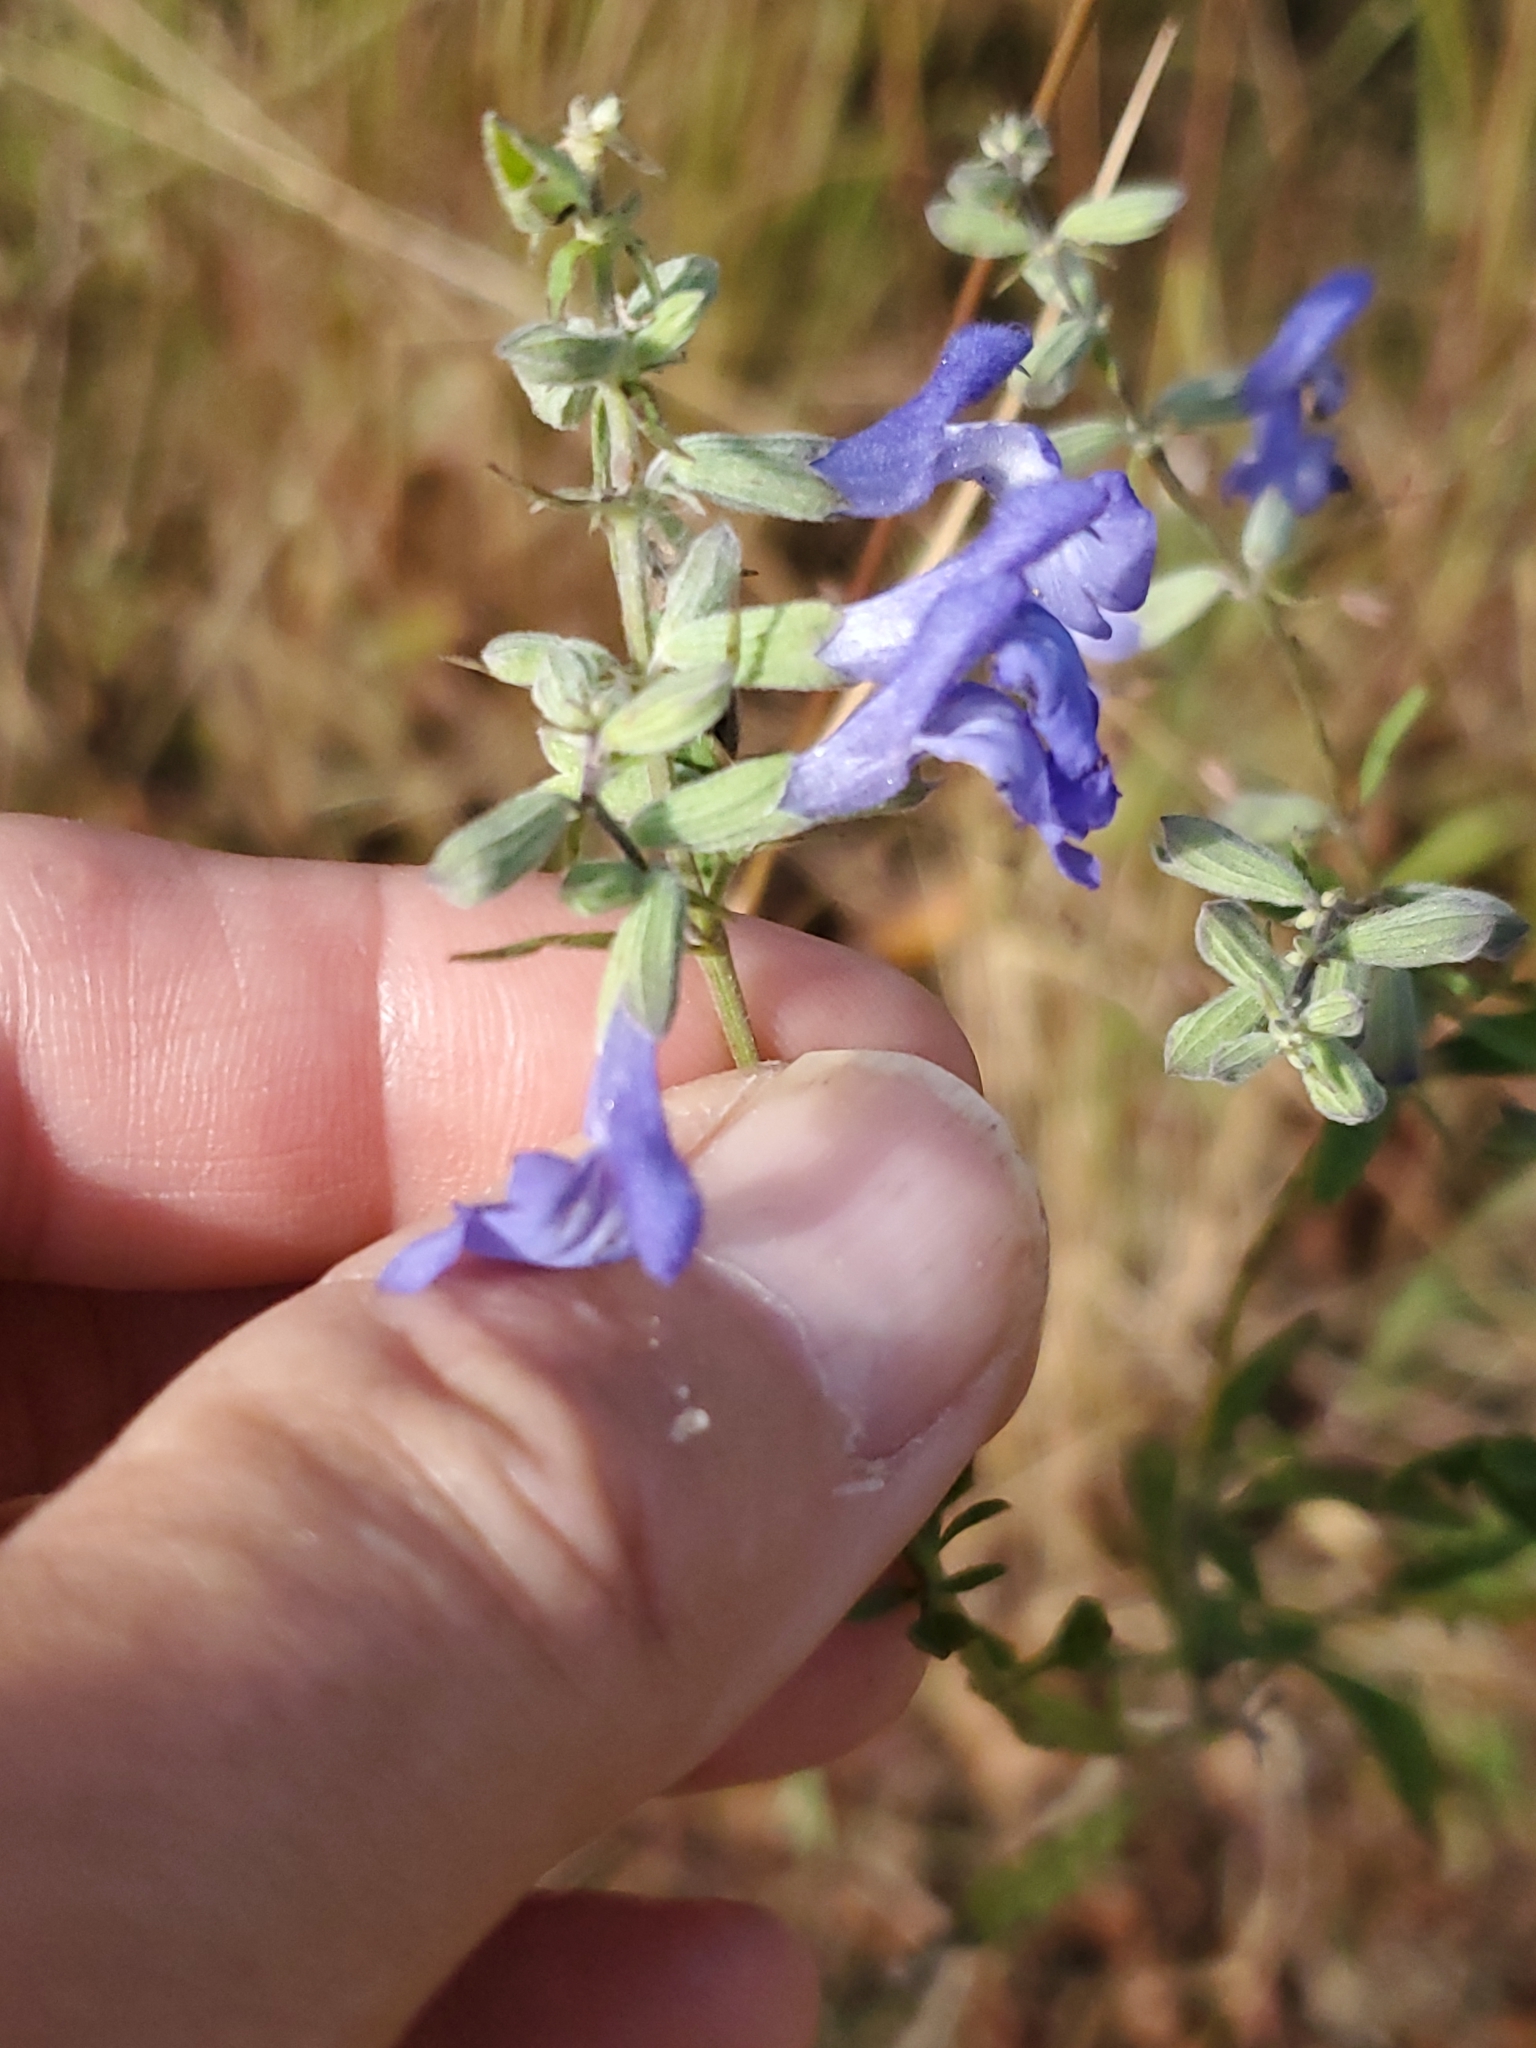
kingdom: Plantae
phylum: Tracheophyta
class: Magnoliopsida
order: Lamiales
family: Lamiaceae
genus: Salvia
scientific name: Salvia azurea
